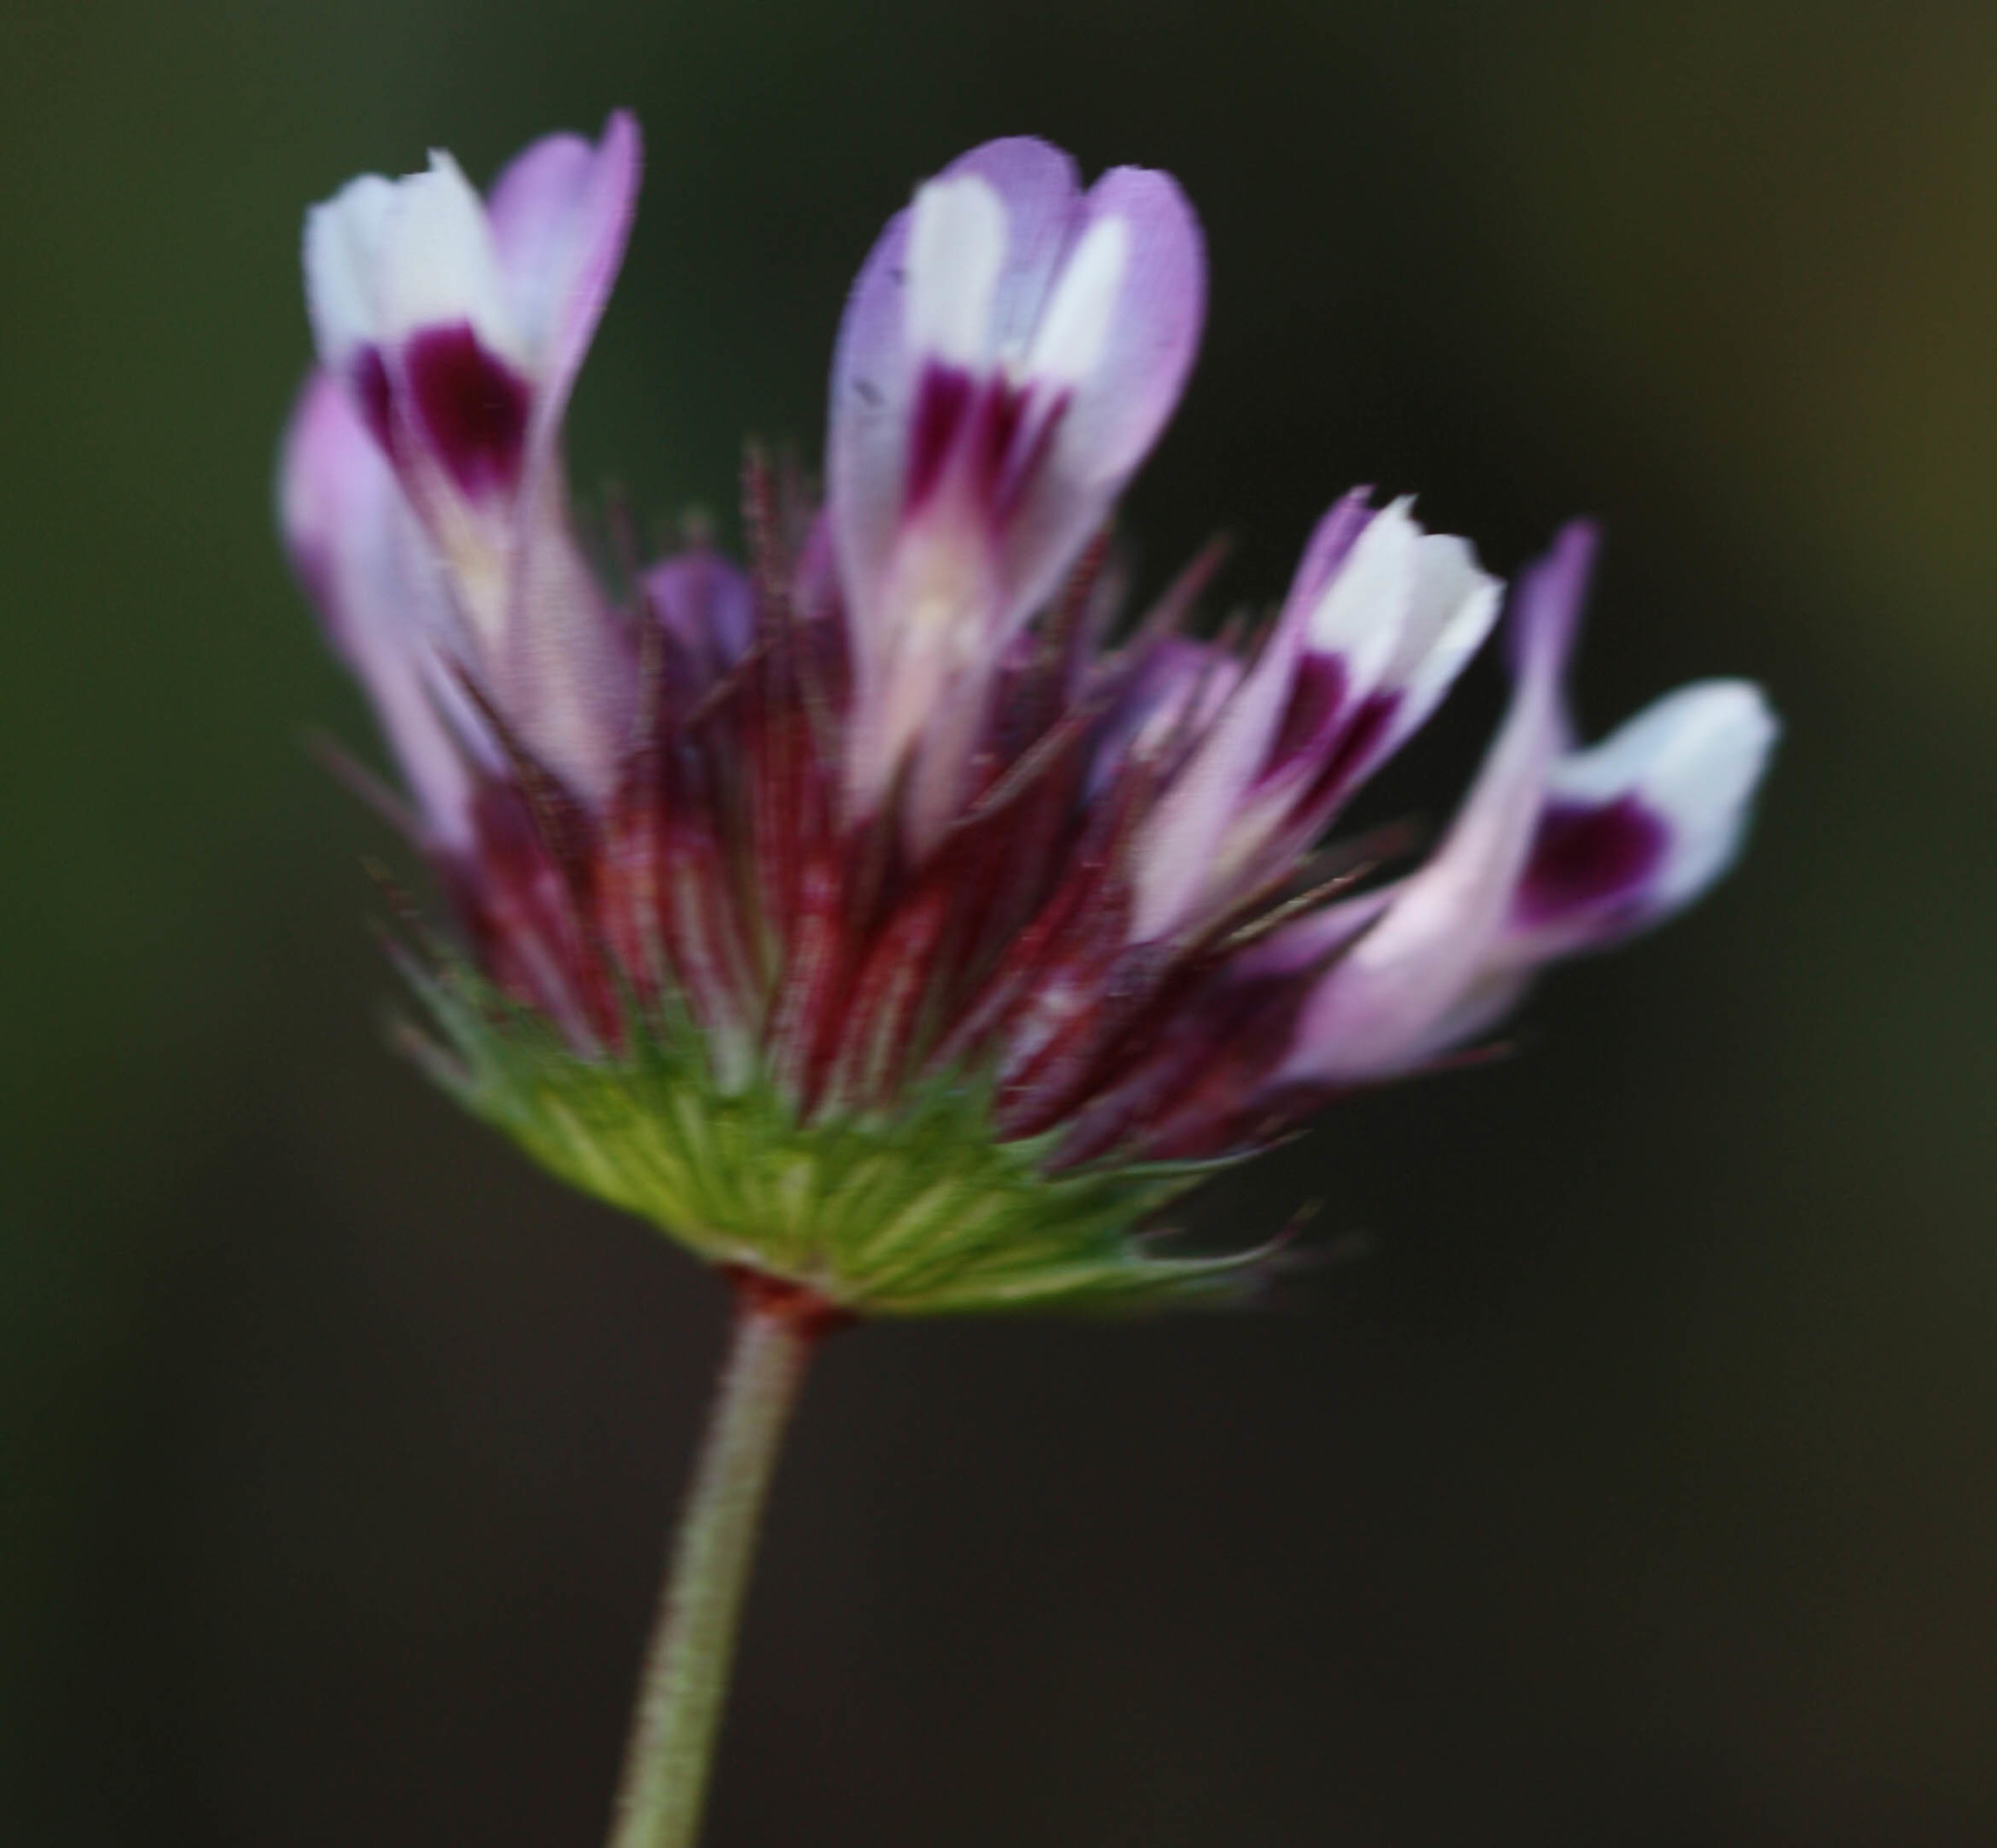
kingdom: Plantae
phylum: Tracheophyta
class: Magnoliopsida
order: Fabales
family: Fabaceae
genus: Trifolium
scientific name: Trifolium willdenovii
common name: Tomcat clover
